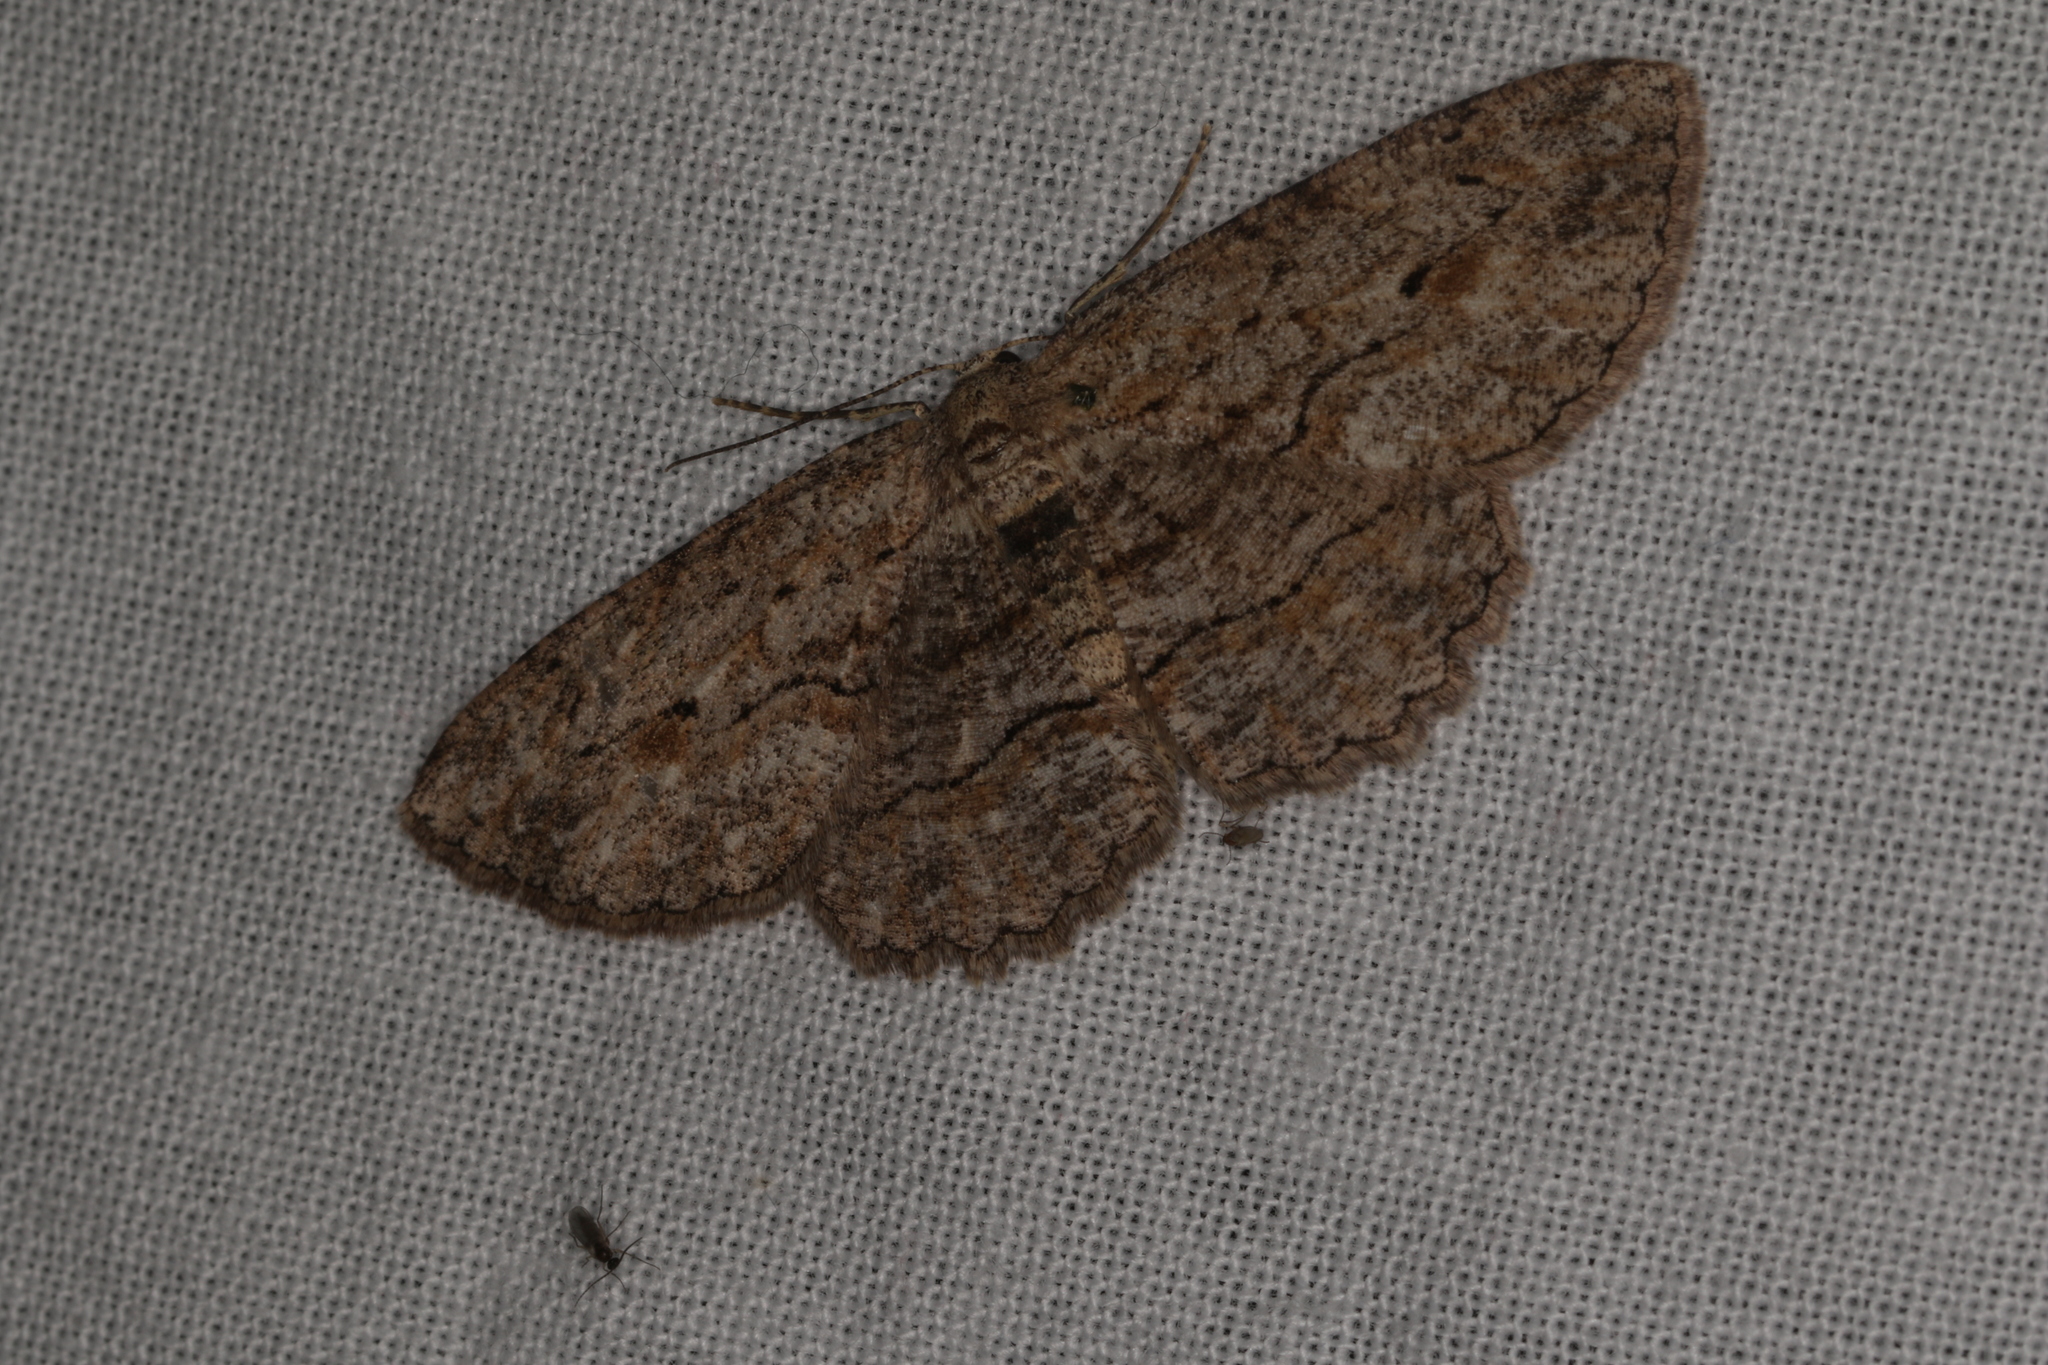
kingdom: Animalia
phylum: Arthropoda
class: Insecta
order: Lepidoptera
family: Geometridae
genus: Ectropis
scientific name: Ectropis excursaria
